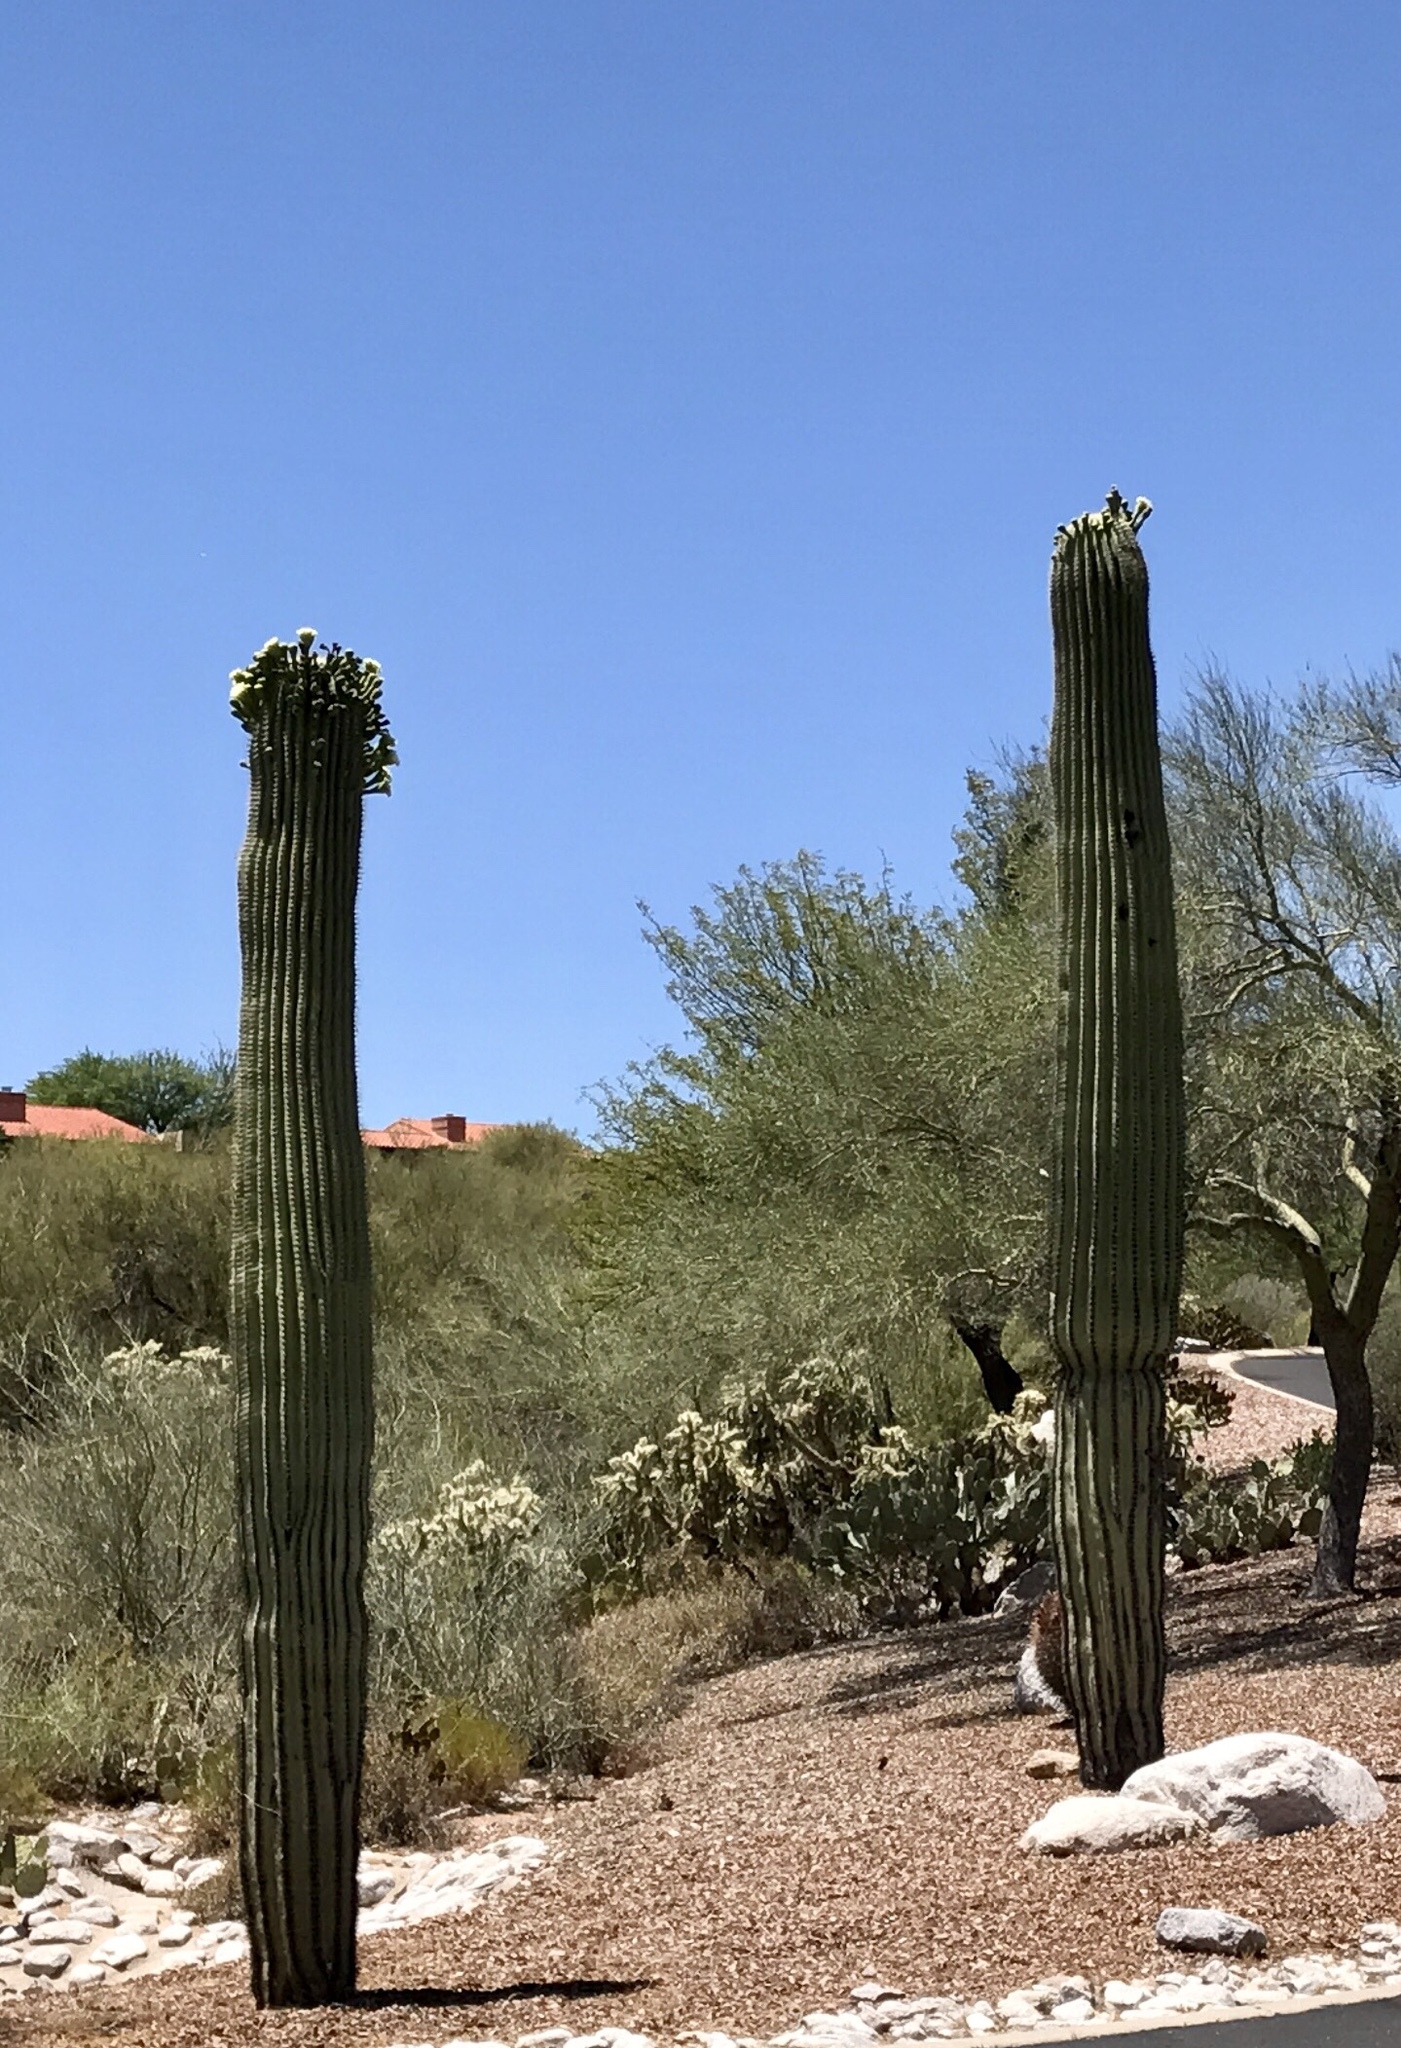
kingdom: Plantae
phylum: Tracheophyta
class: Magnoliopsida
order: Caryophyllales
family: Cactaceae
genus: Carnegiea
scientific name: Carnegiea gigantea
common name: Saguaro
